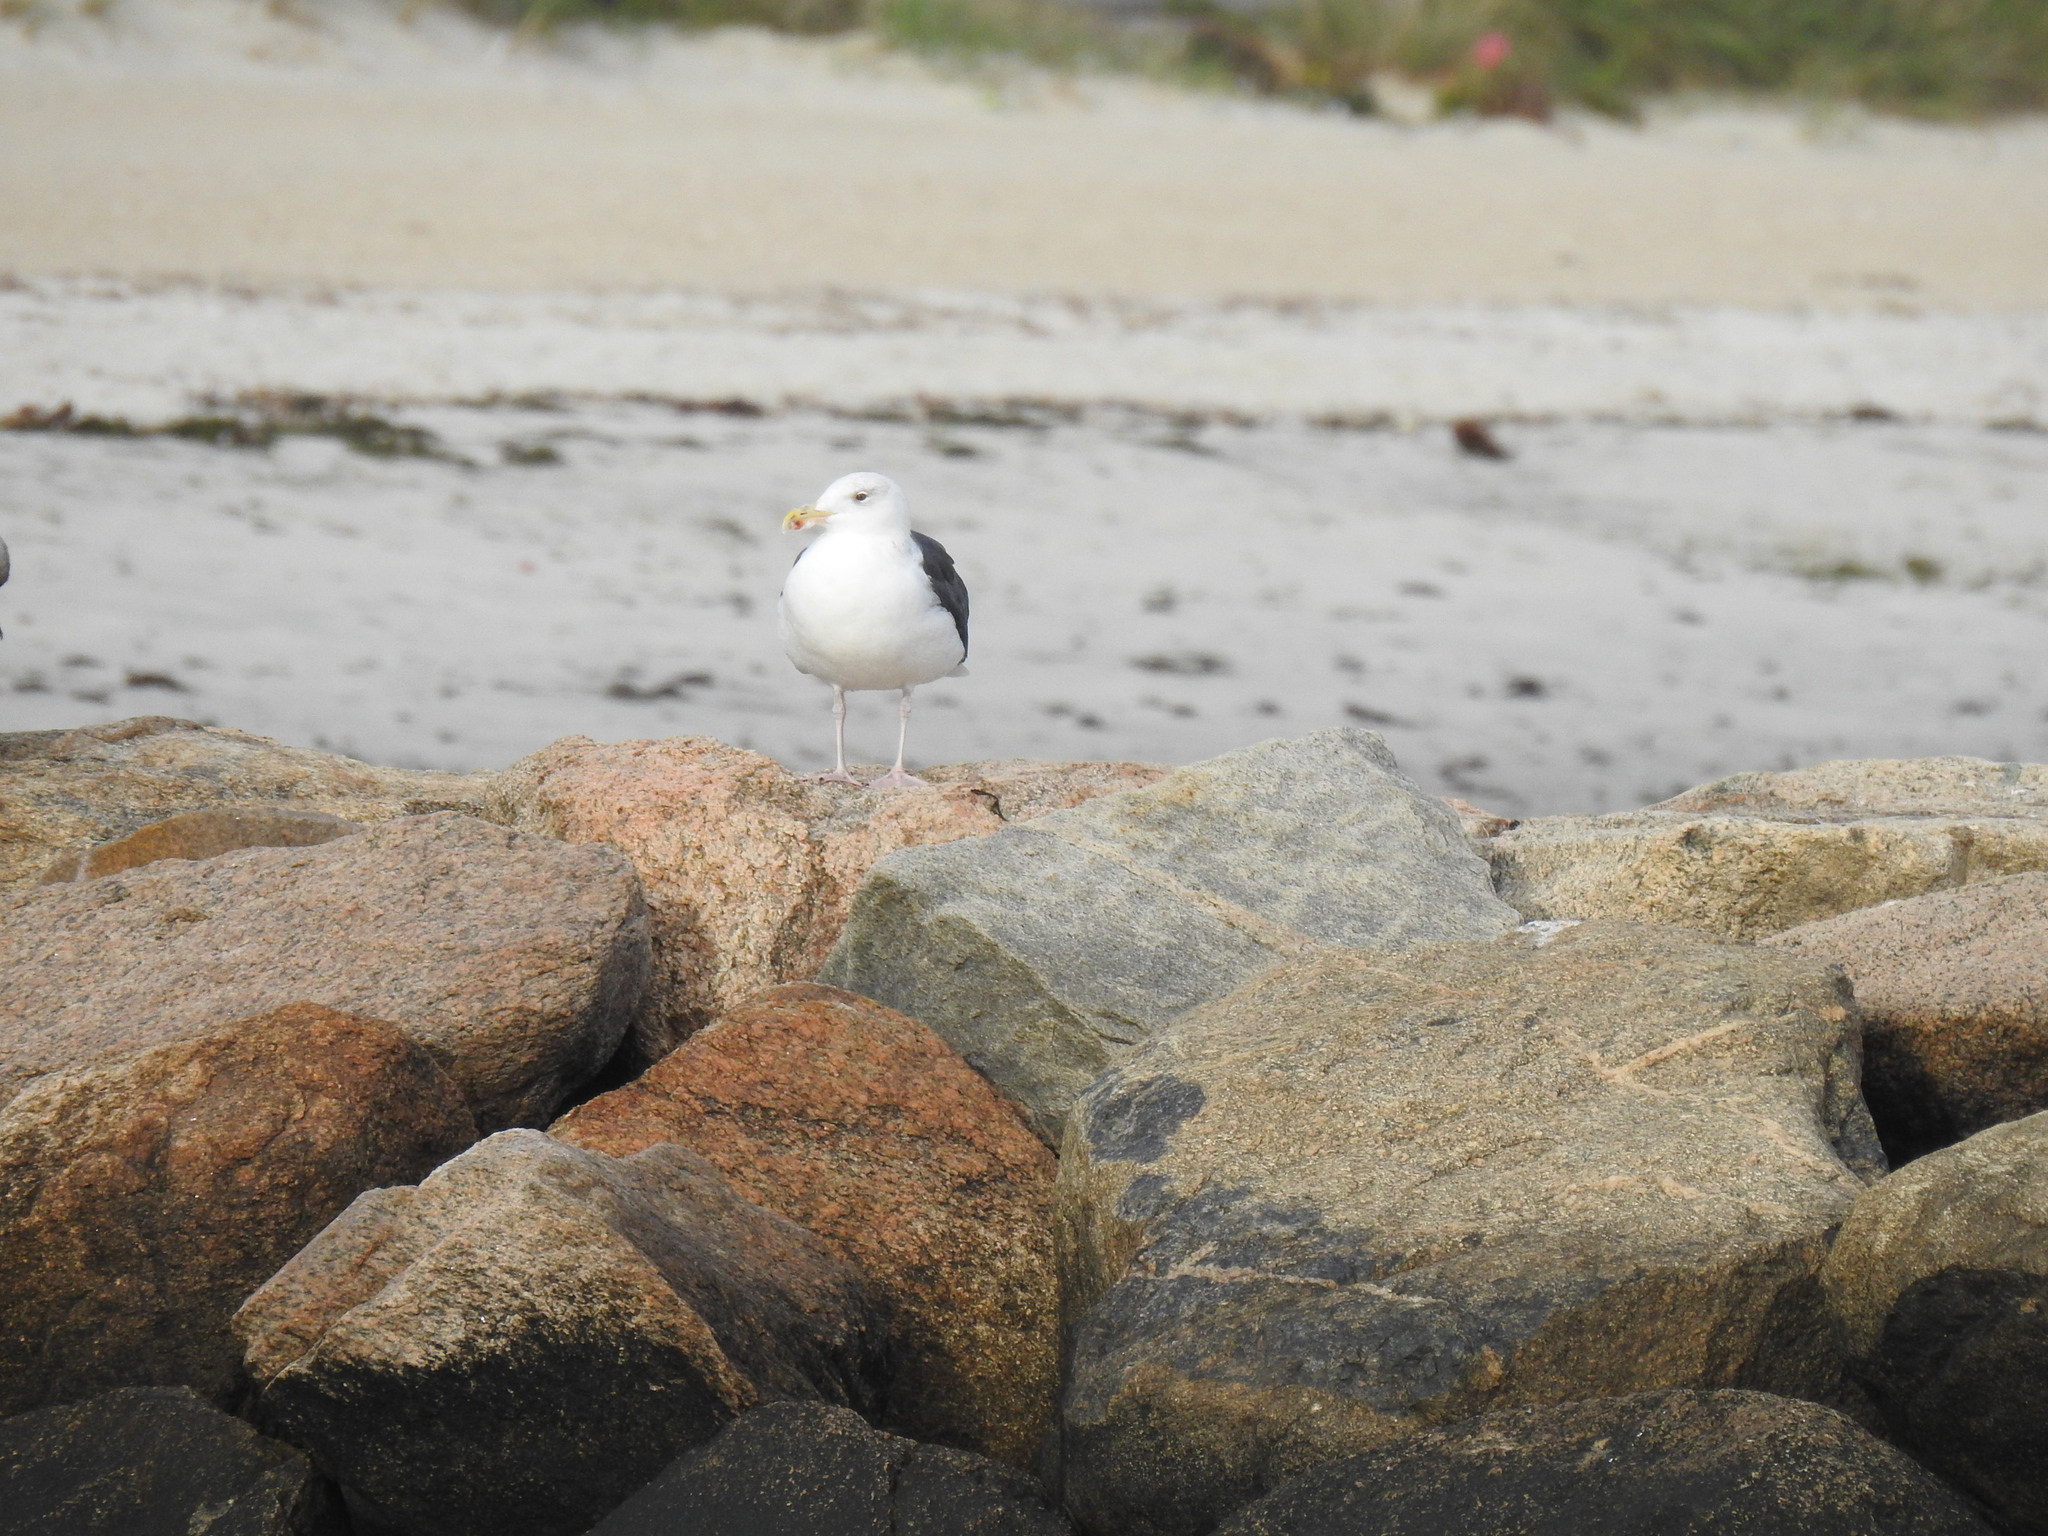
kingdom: Animalia
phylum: Chordata
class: Aves
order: Charadriiformes
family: Laridae
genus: Larus
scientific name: Larus marinus
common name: Great black-backed gull
